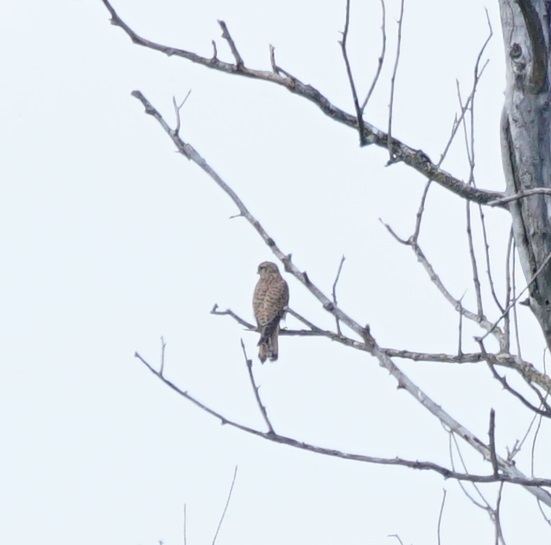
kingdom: Animalia
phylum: Chordata
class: Aves
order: Falconiformes
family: Falconidae
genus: Falco
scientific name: Falco tinnunculus
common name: Common kestrel
